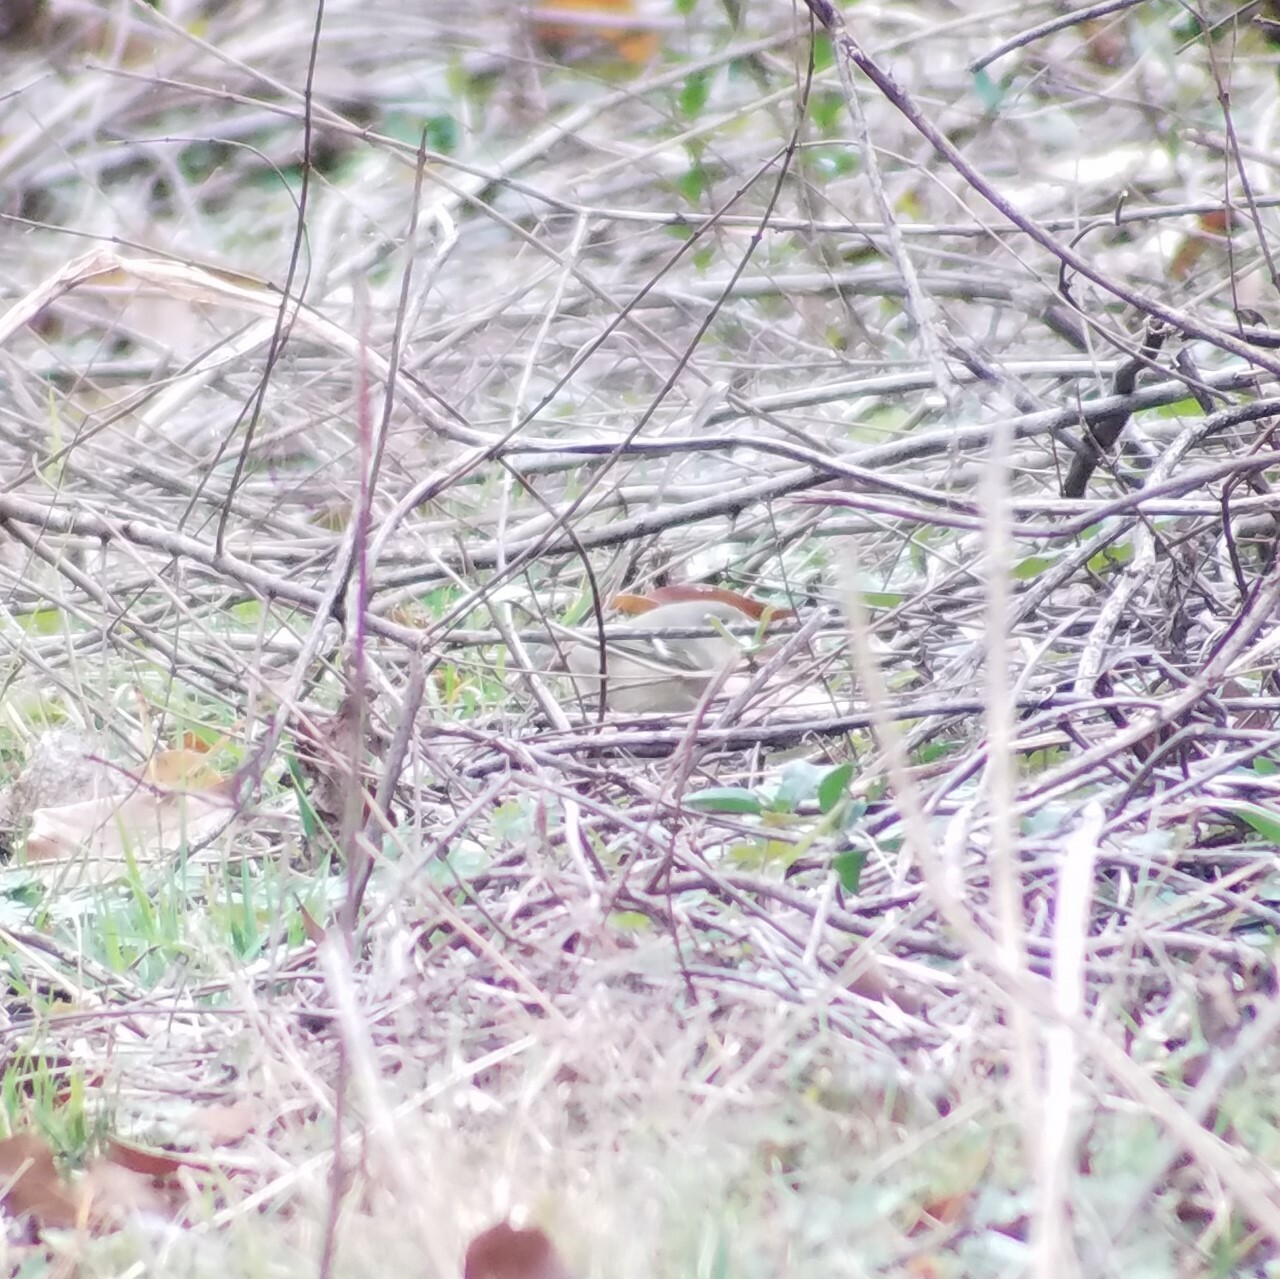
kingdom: Animalia
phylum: Chordata
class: Aves
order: Passeriformes
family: Regulidae
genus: Regulus
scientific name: Regulus calendula
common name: Ruby-crowned kinglet
